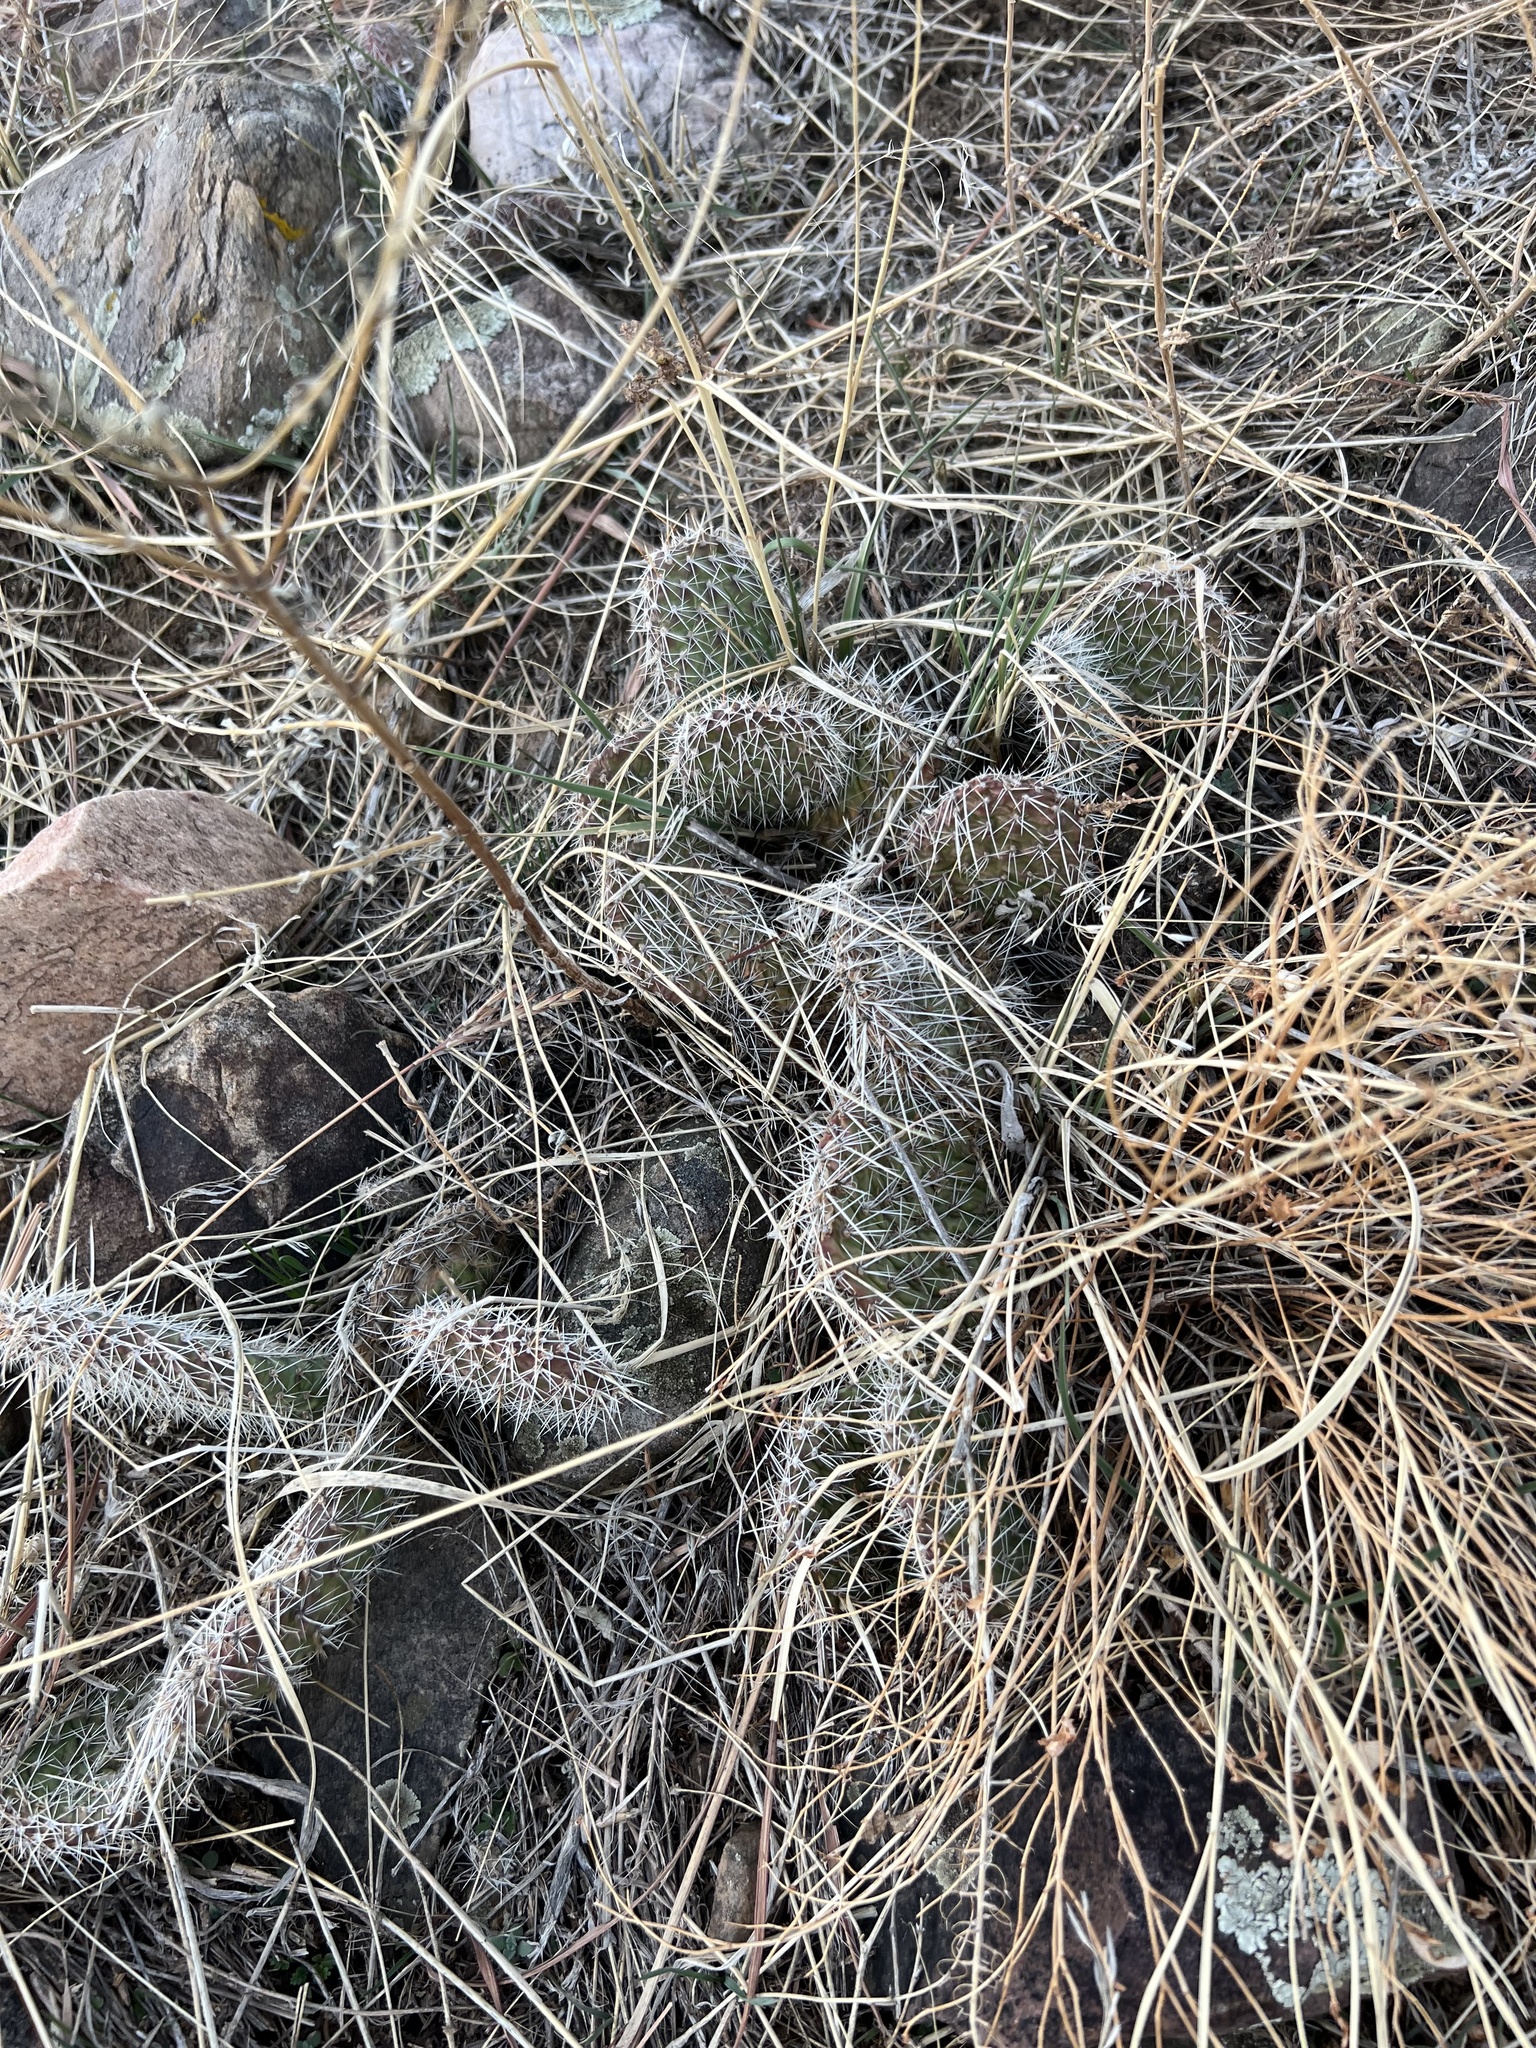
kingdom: Plantae
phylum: Tracheophyta
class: Magnoliopsida
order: Caryophyllales
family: Cactaceae
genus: Opuntia
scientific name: Opuntia polyacantha
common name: Plains prickly-pear
